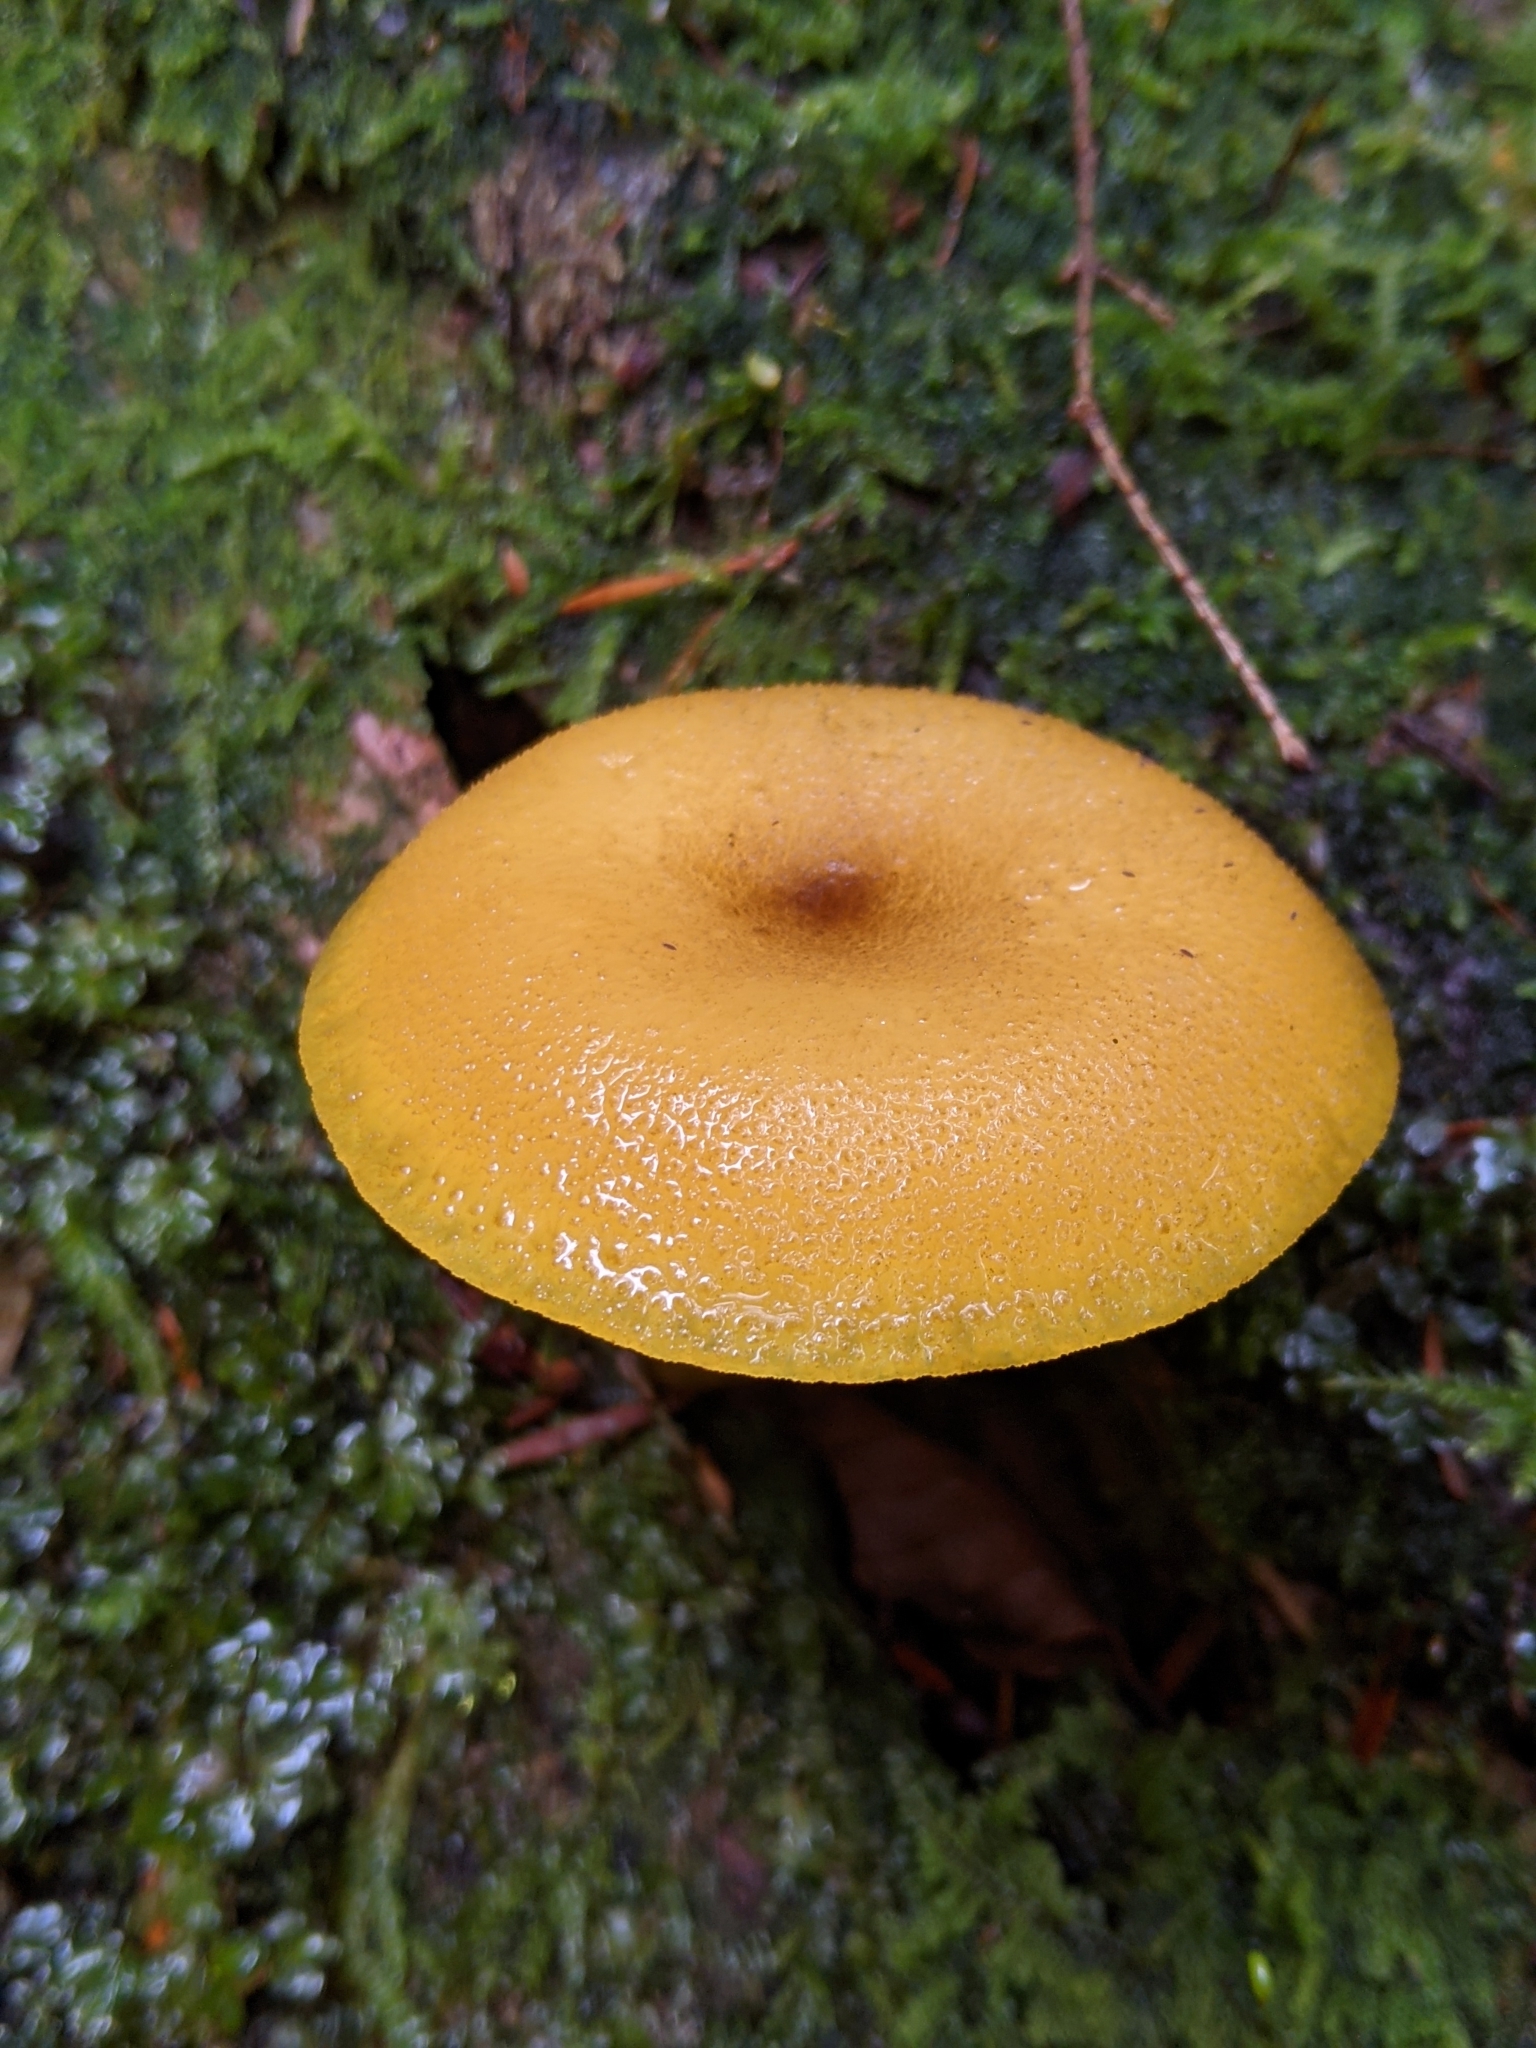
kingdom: Fungi
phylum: Basidiomycota
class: Agaricomycetes
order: Agaricales
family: Tricholomataceae
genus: Tricholomopsis
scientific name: Tricholomopsis decora
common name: Prunes and custard
